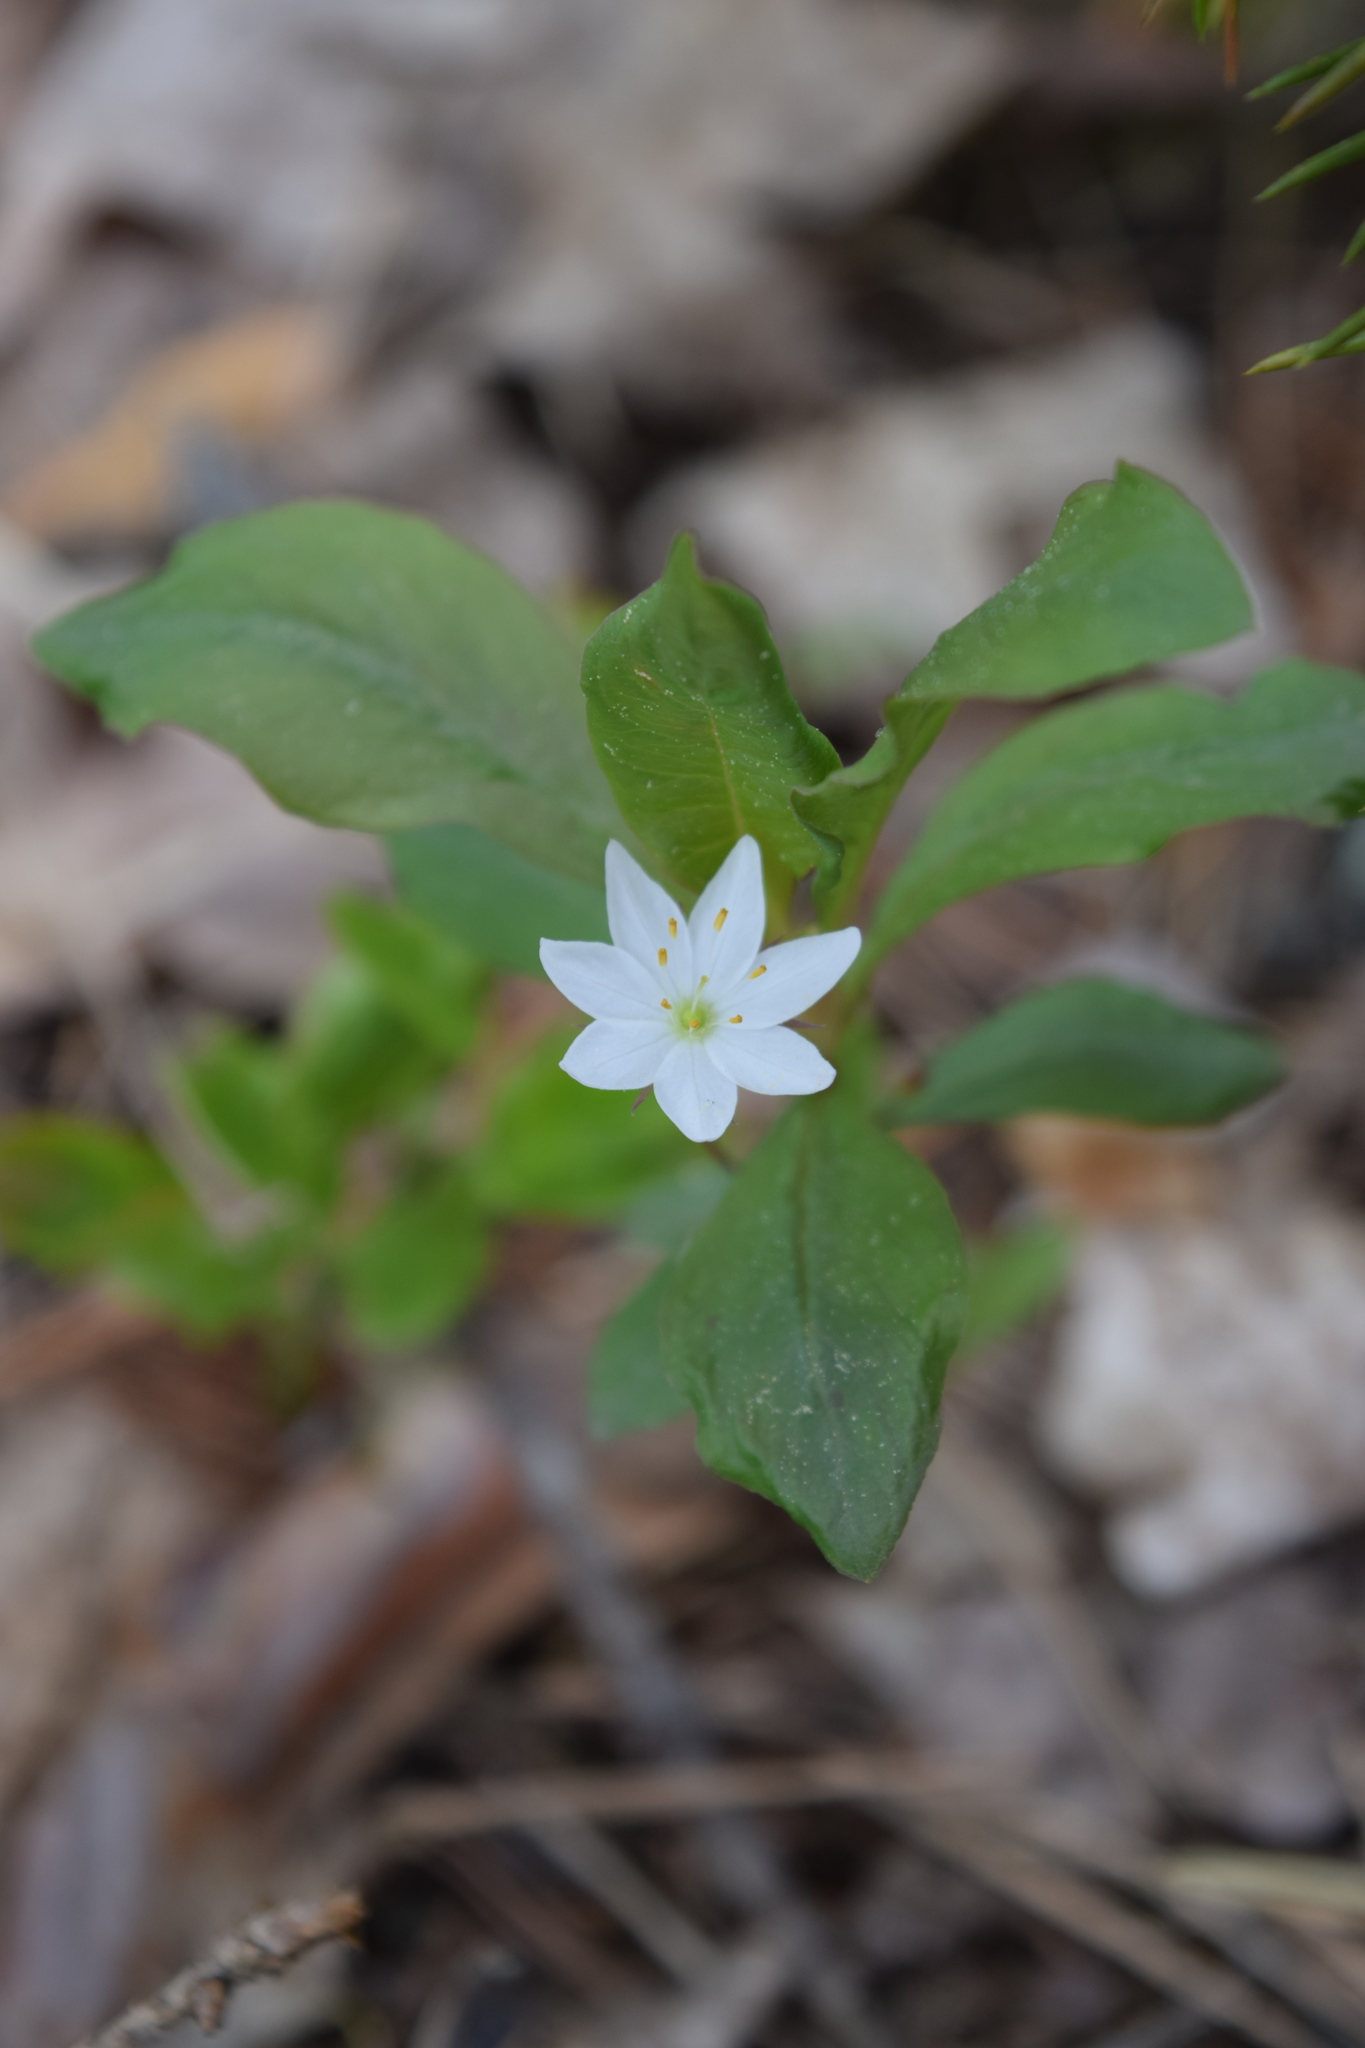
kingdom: Plantae
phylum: Tracheophyta
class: Magnoliopsida
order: Ericales
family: Primulaceae
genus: Lysimachia
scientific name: Lysimachia europaea
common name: Arctic starflower
